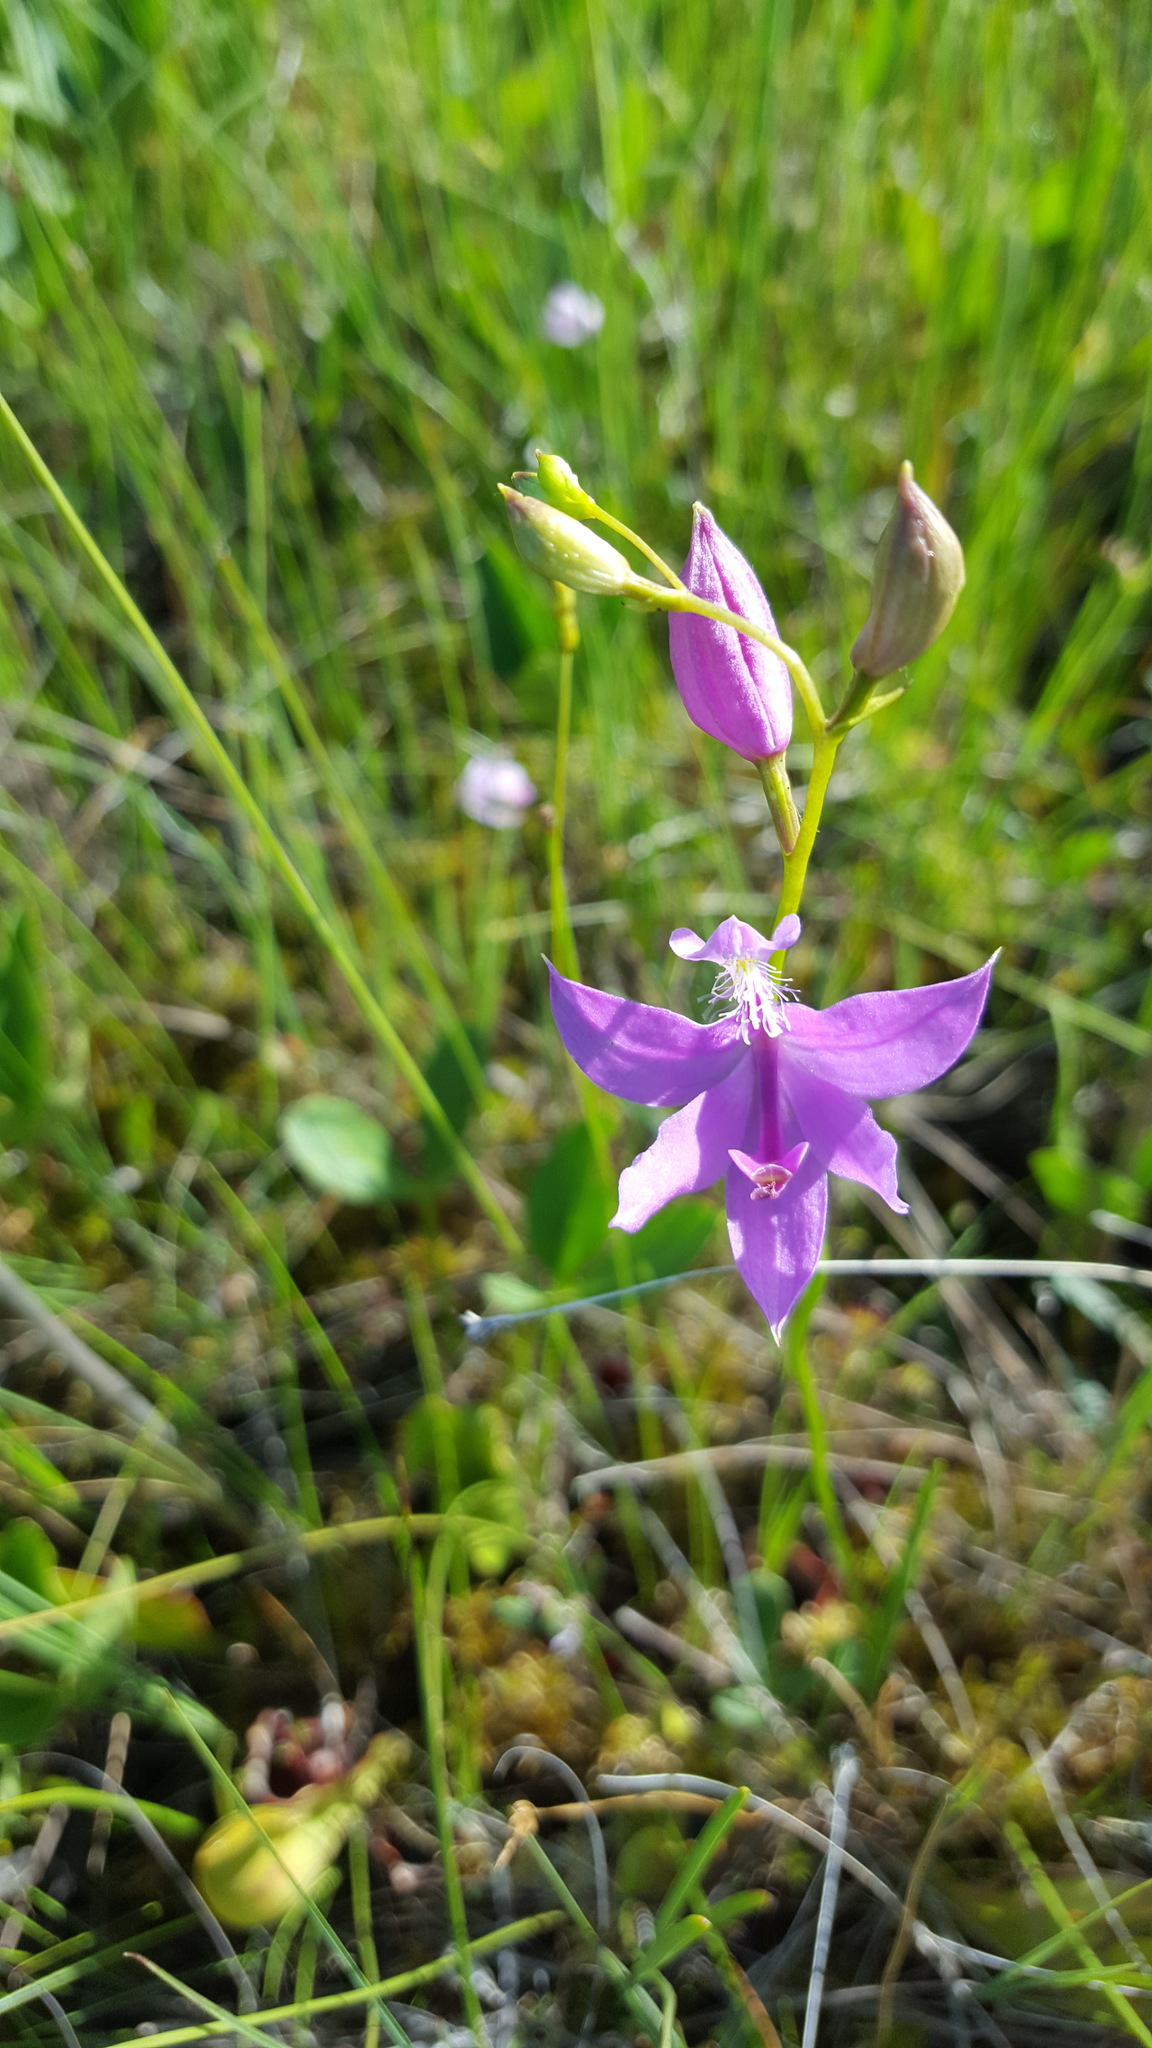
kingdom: Plantae
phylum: Tracheophyta
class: Liliopsida
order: Asparagales
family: Orchidaceae
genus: Calopogon
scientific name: Calopogon tuberosus
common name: Grass-pink
